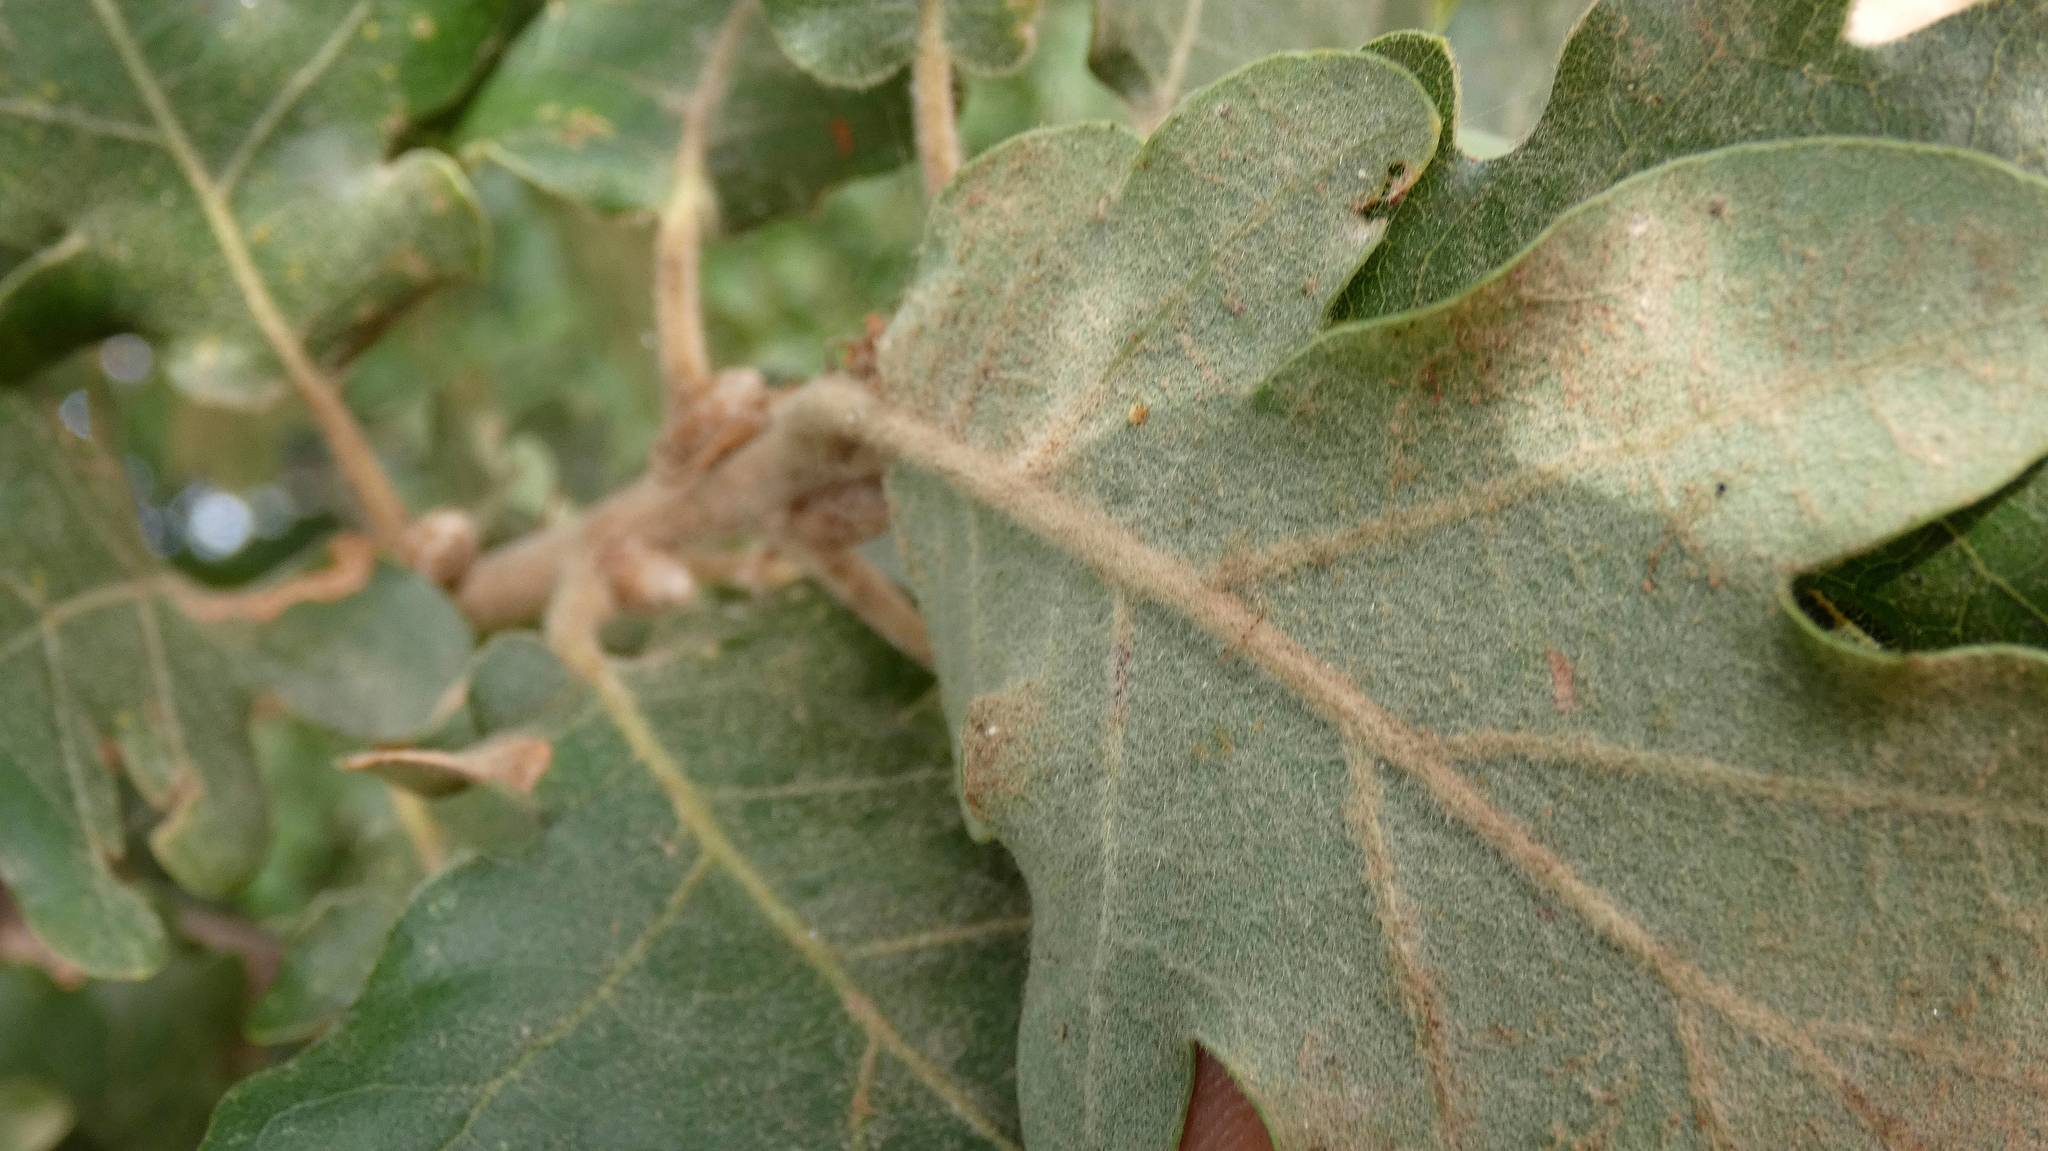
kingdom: Plantae
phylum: Tracheophyta
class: Magnoliopsida
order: Fagales
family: Fagaceae
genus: Quercus
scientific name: Quercus pubescens
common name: Downy oak
